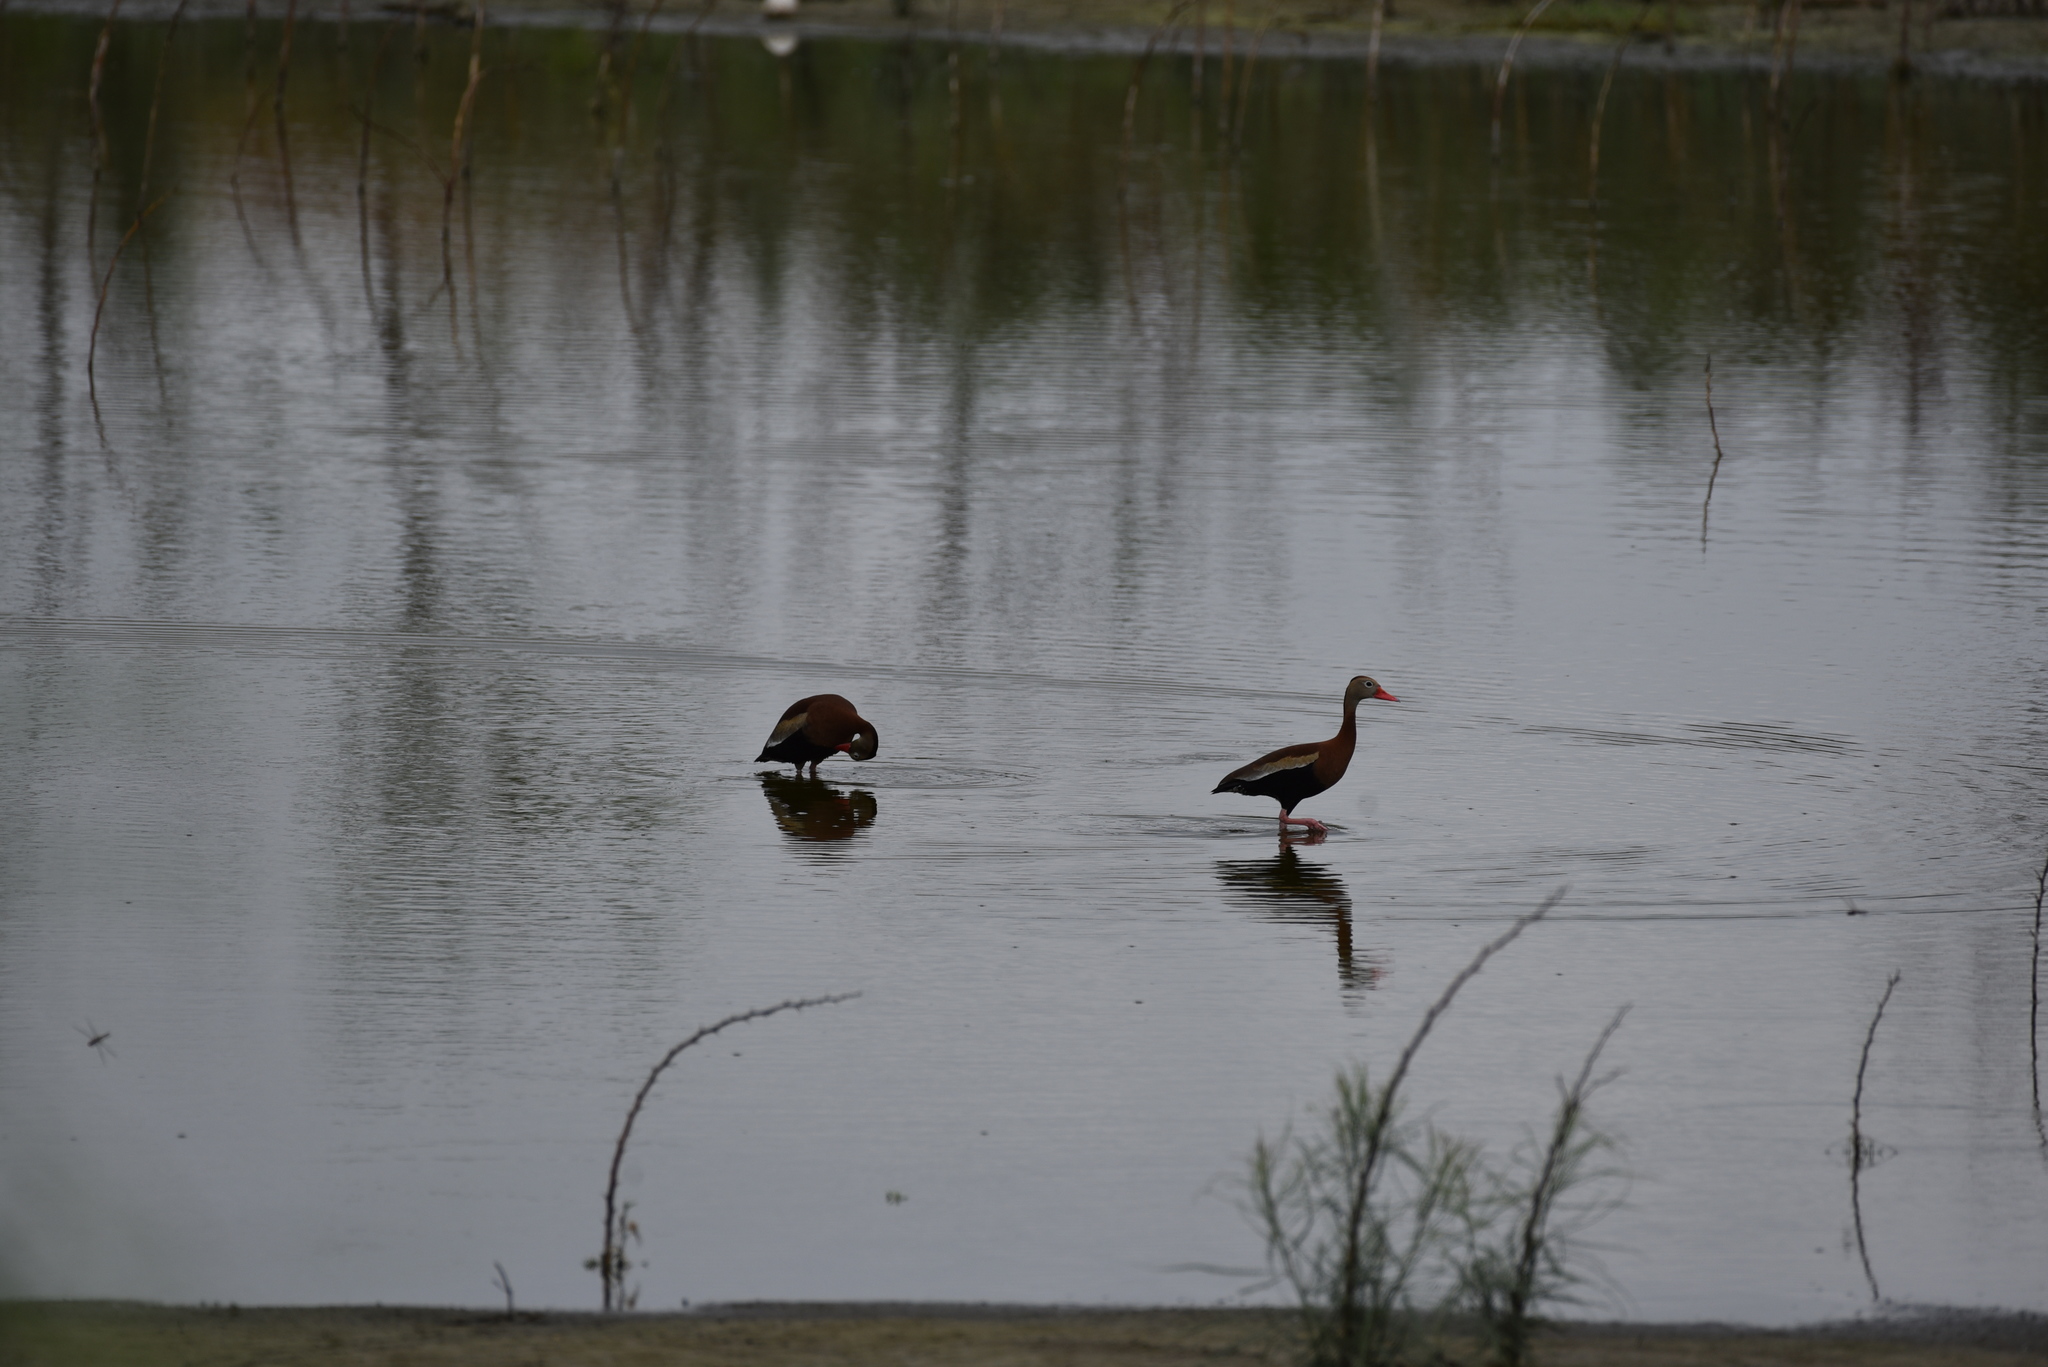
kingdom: Animalia
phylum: Chordata
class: Aves
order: Anseriformes
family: Anatidae
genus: Dendrocygna
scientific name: Dendrocygna autumnalis
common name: Black-bellied whistling duck
